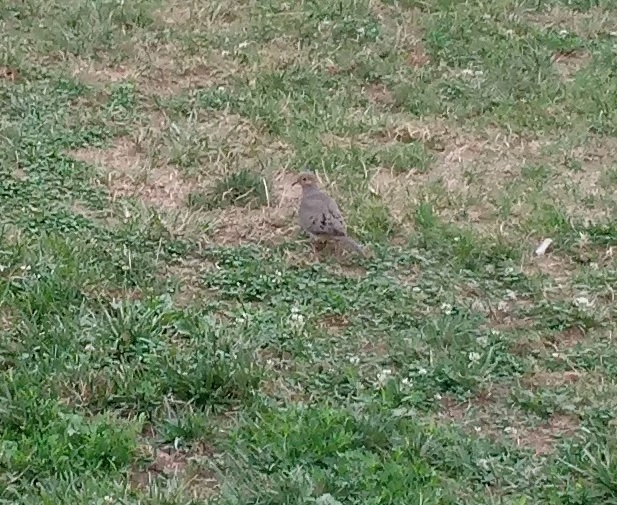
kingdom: Animalia
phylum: Chordata
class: Aves
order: Columbiformes
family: Columbidae
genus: Zenaida
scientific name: Zenaida macroura
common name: Mourning dove
